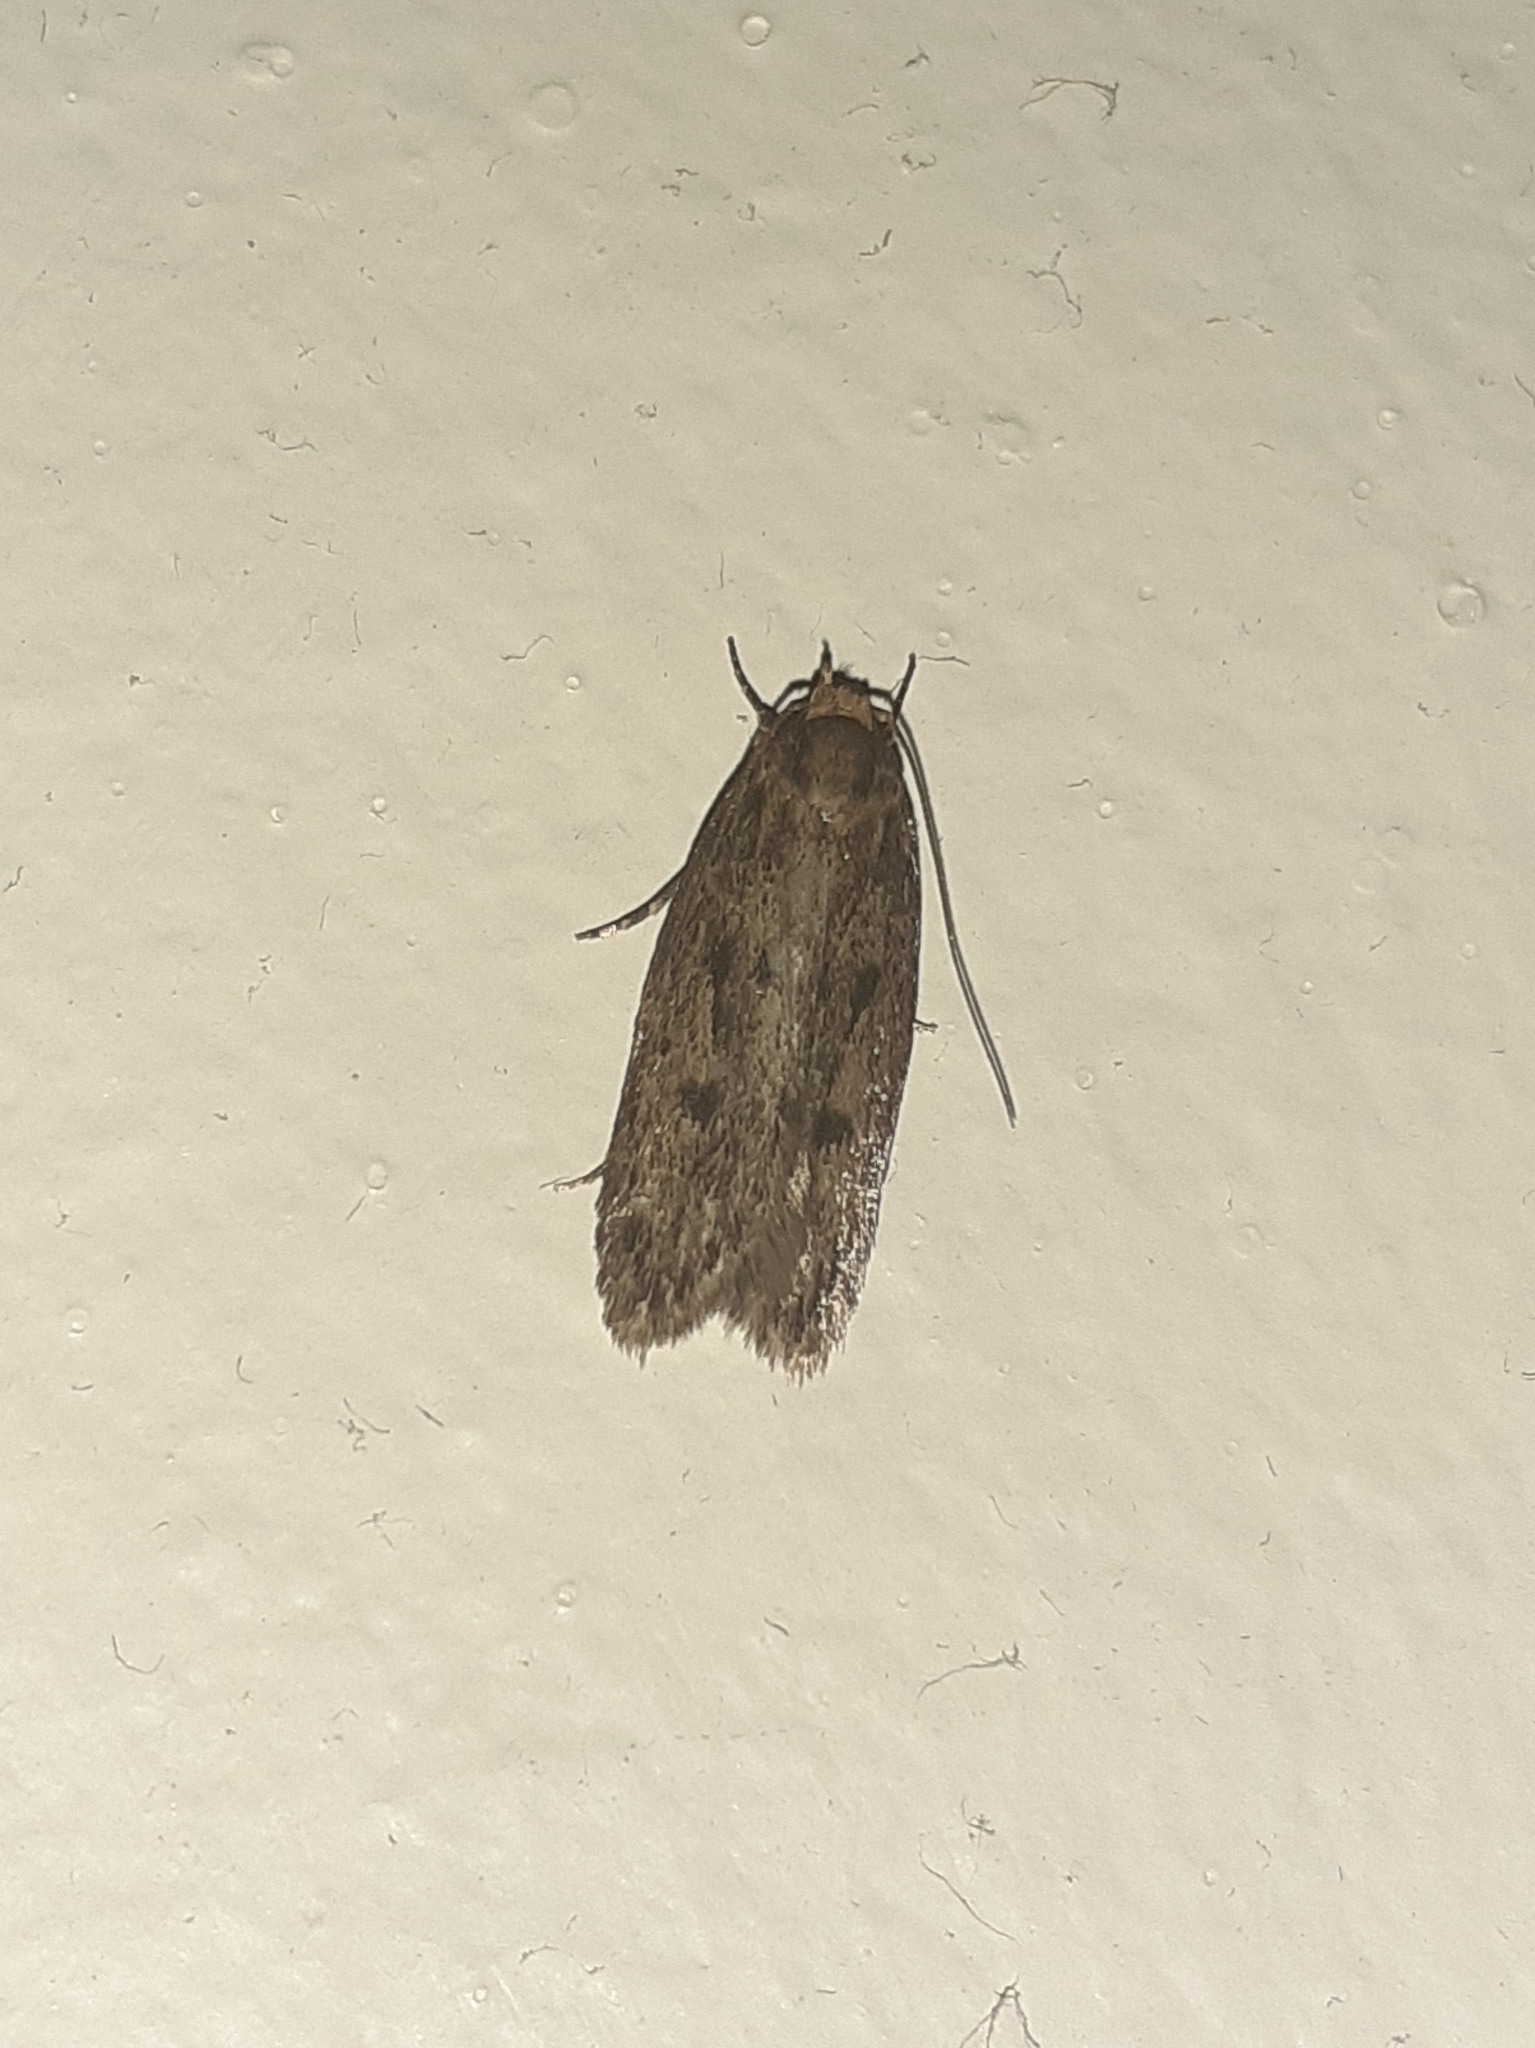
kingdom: Animalia
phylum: Arthropoda
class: Insecta
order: Lepidoptera
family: Oecophoridae
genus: Hofmannophila
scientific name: Hofmannophila pseudospretella
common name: Brown house moth
